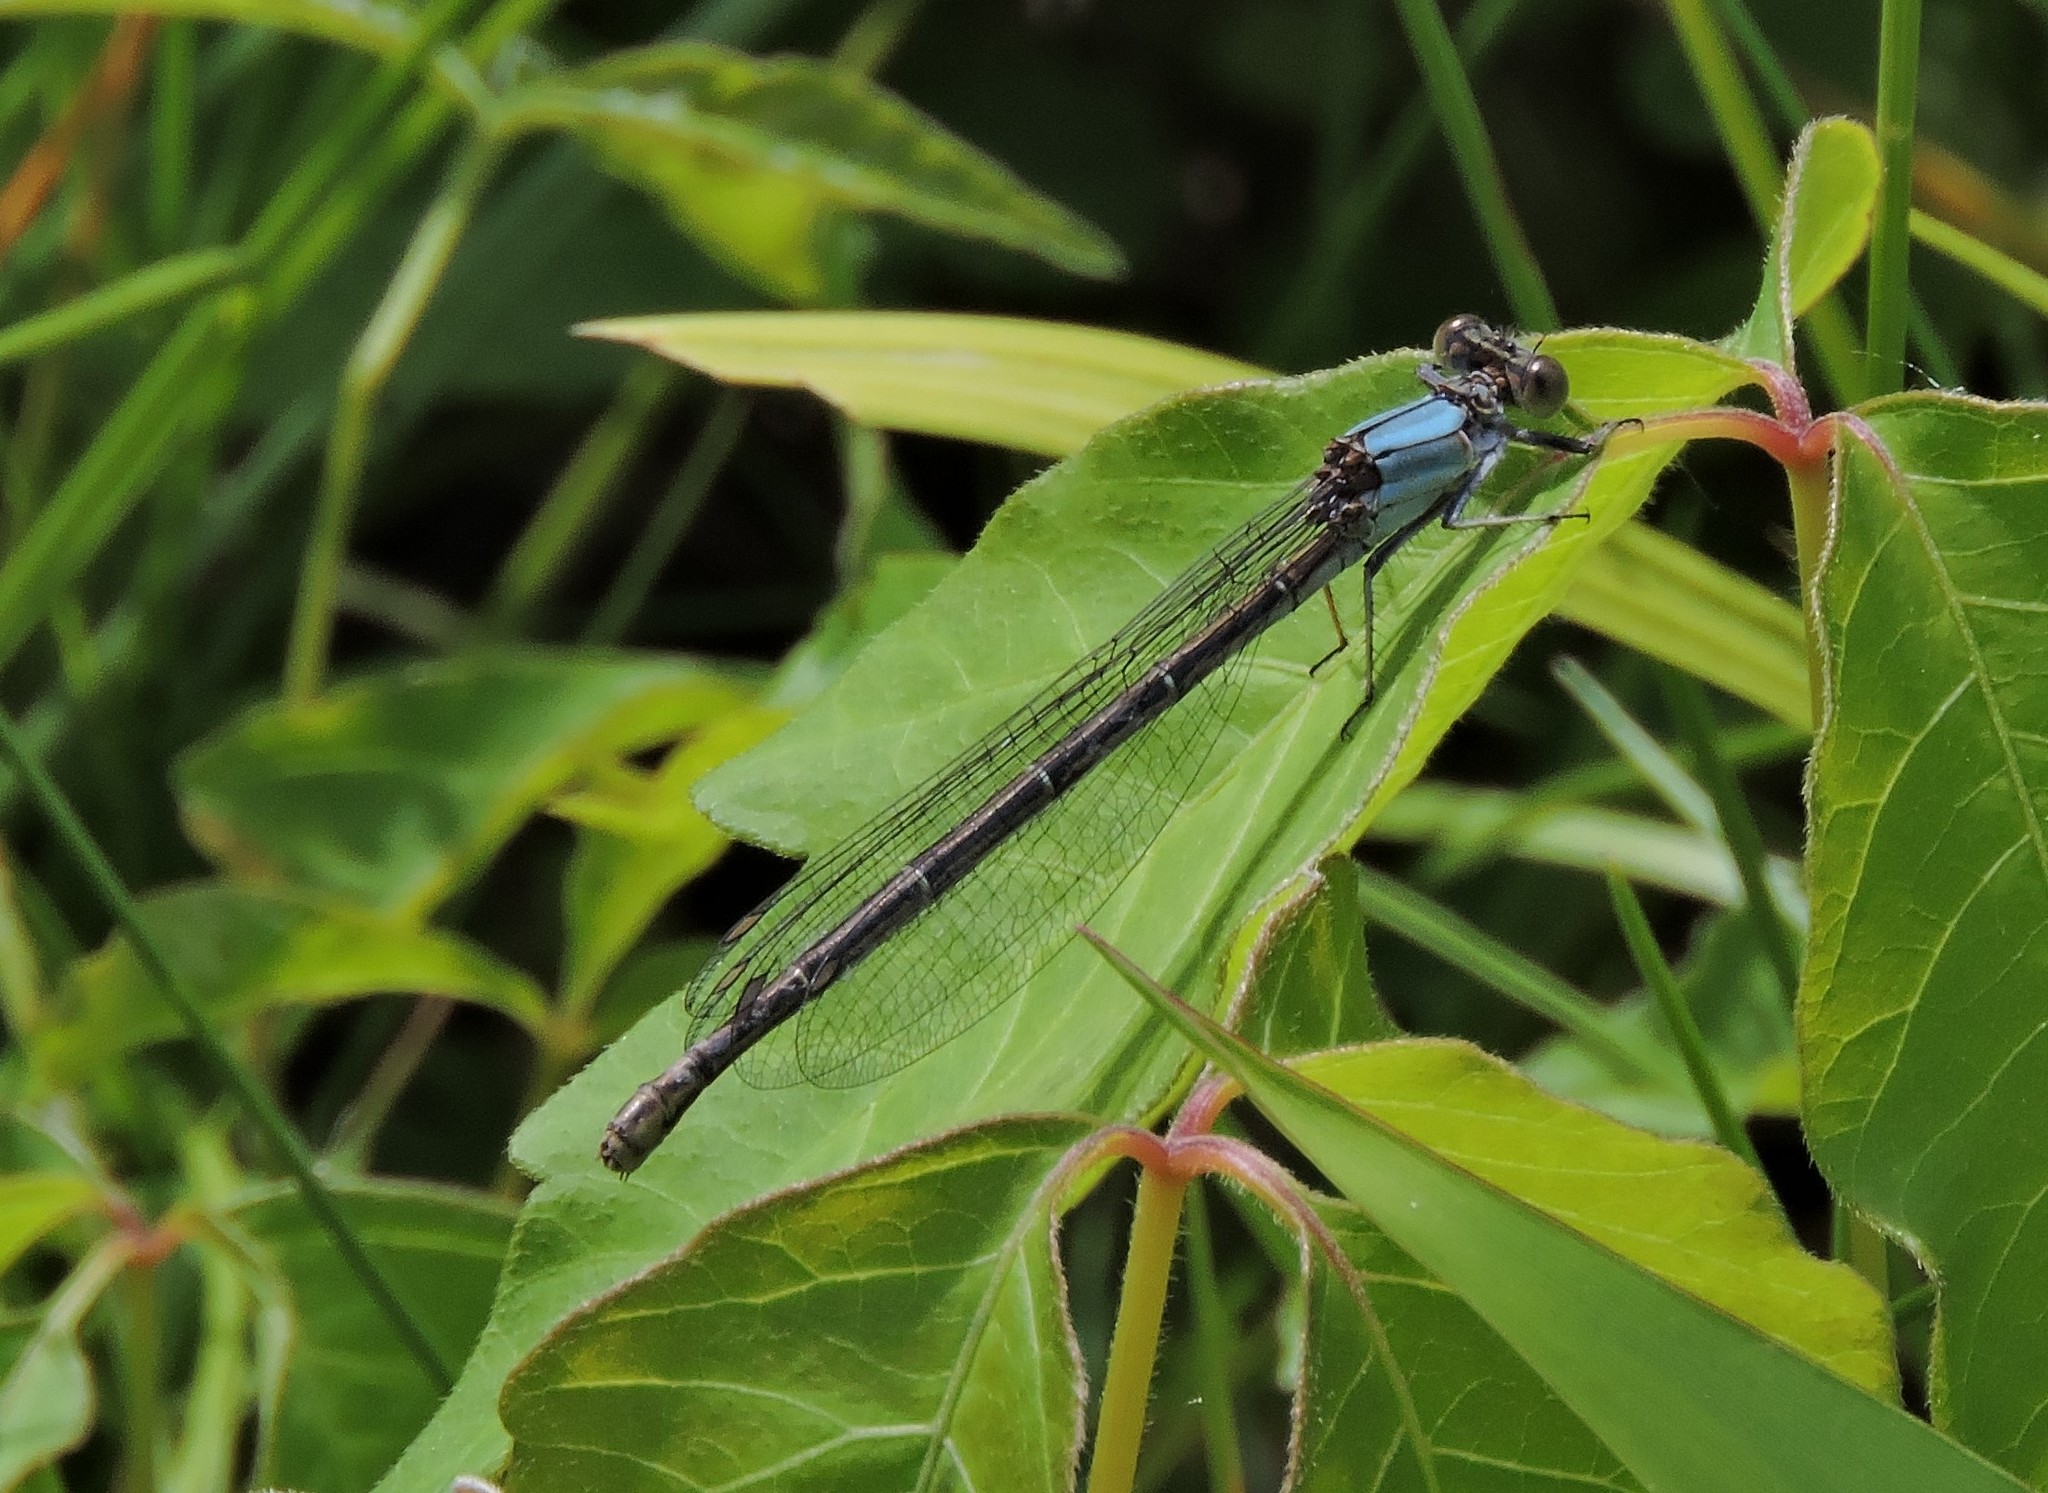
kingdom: Animalia
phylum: Arthropoda
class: Insecta
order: Odonata
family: Coenagrionidae
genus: Argia
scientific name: Argia moesta
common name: Powdered dancer
